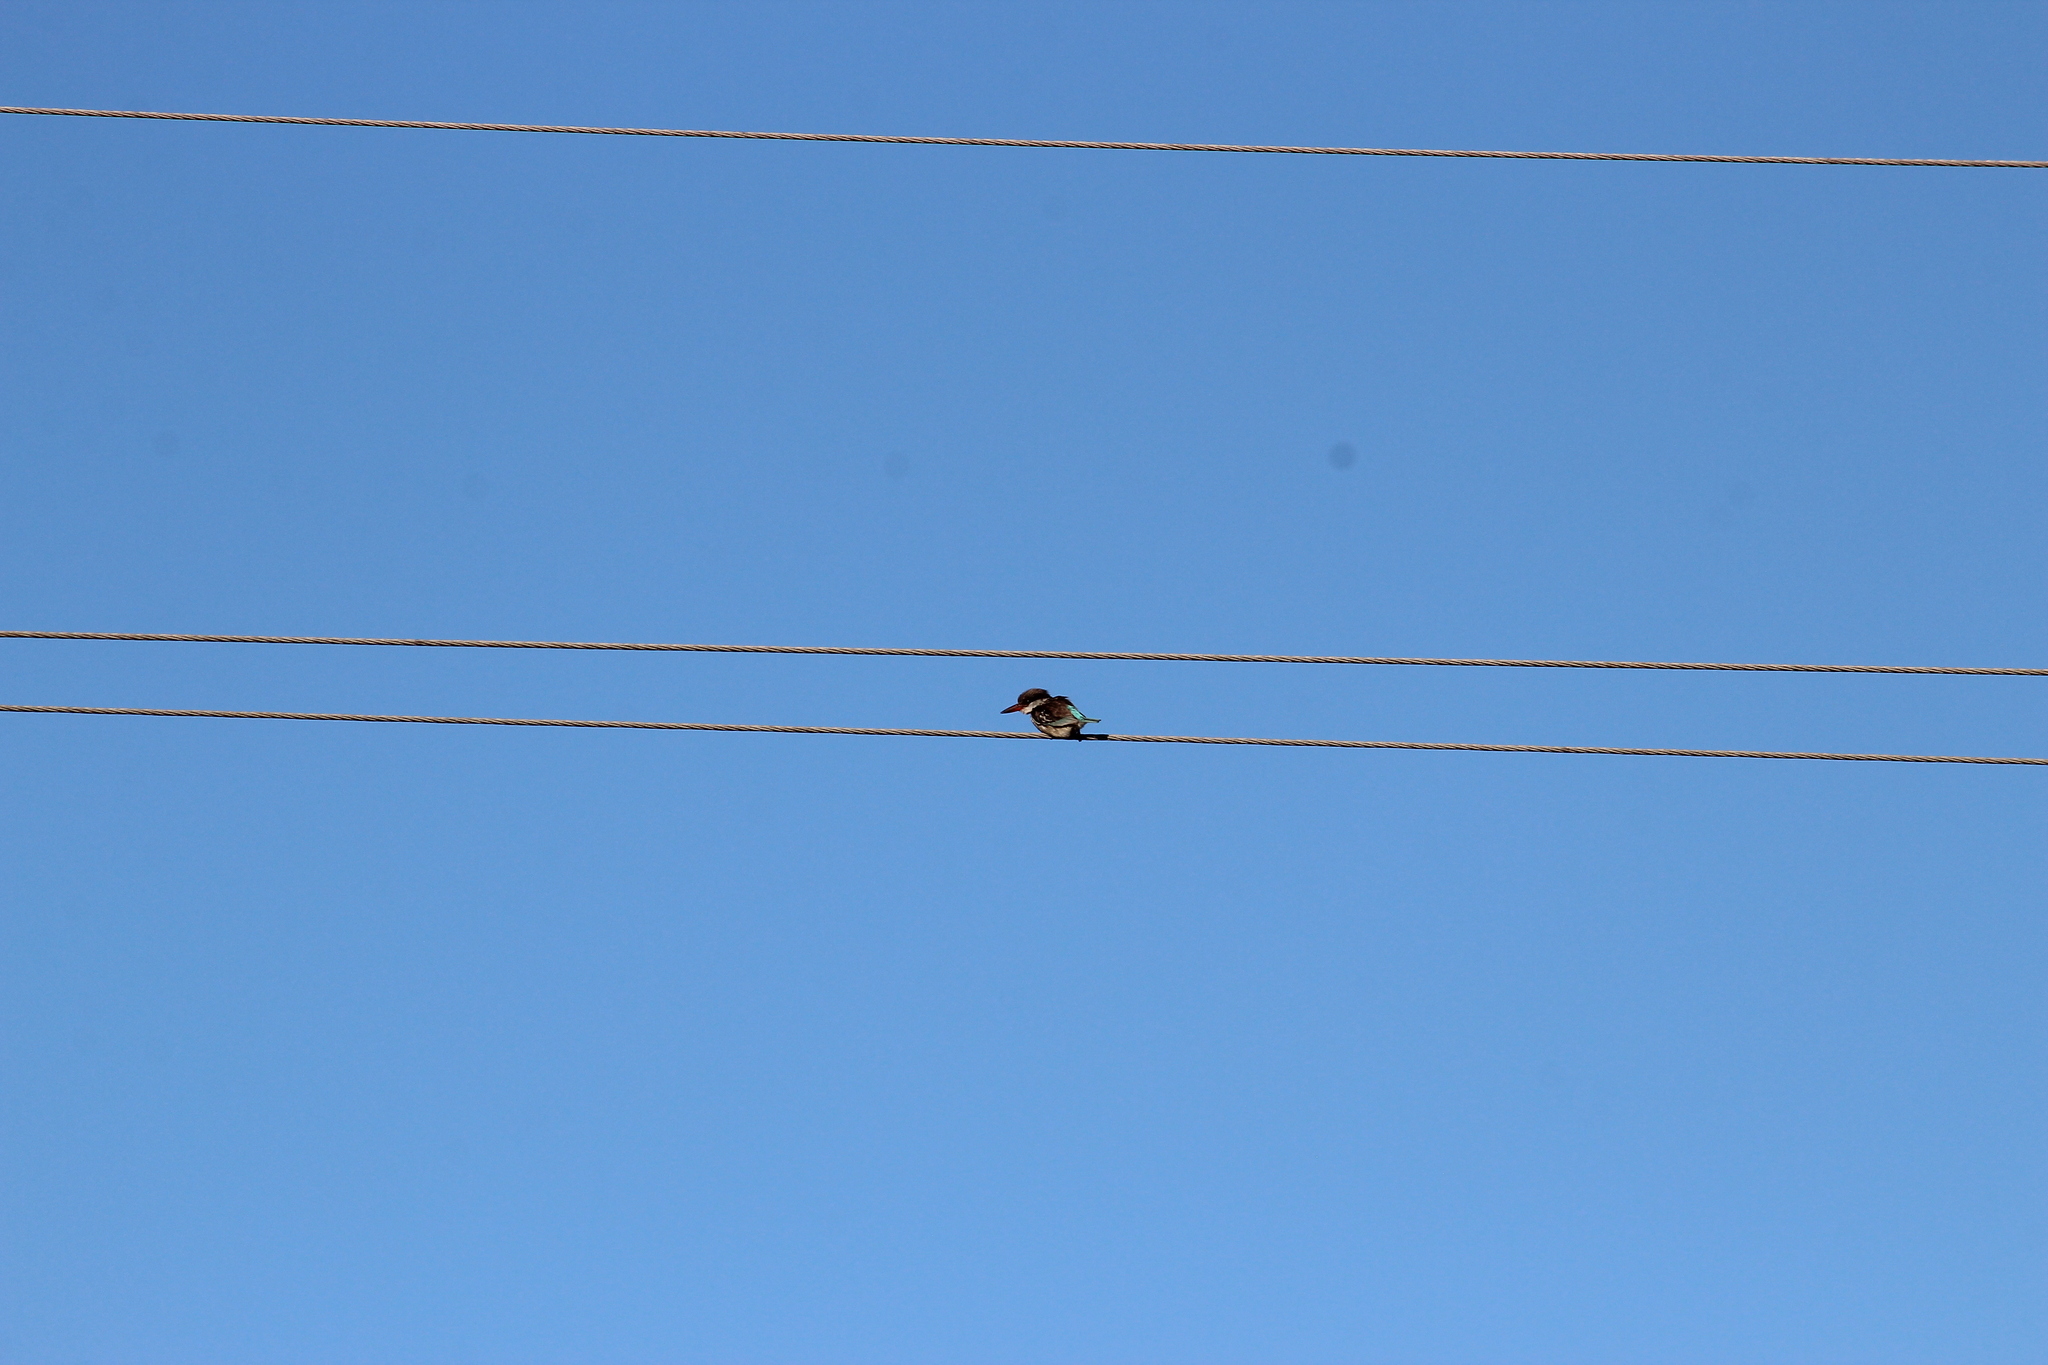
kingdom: Animalia
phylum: Chordata
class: Aves
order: Coraciiformes
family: Alcedinidae
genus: Halcyon
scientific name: Halcyon chelicuti
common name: Striped kingfisher
